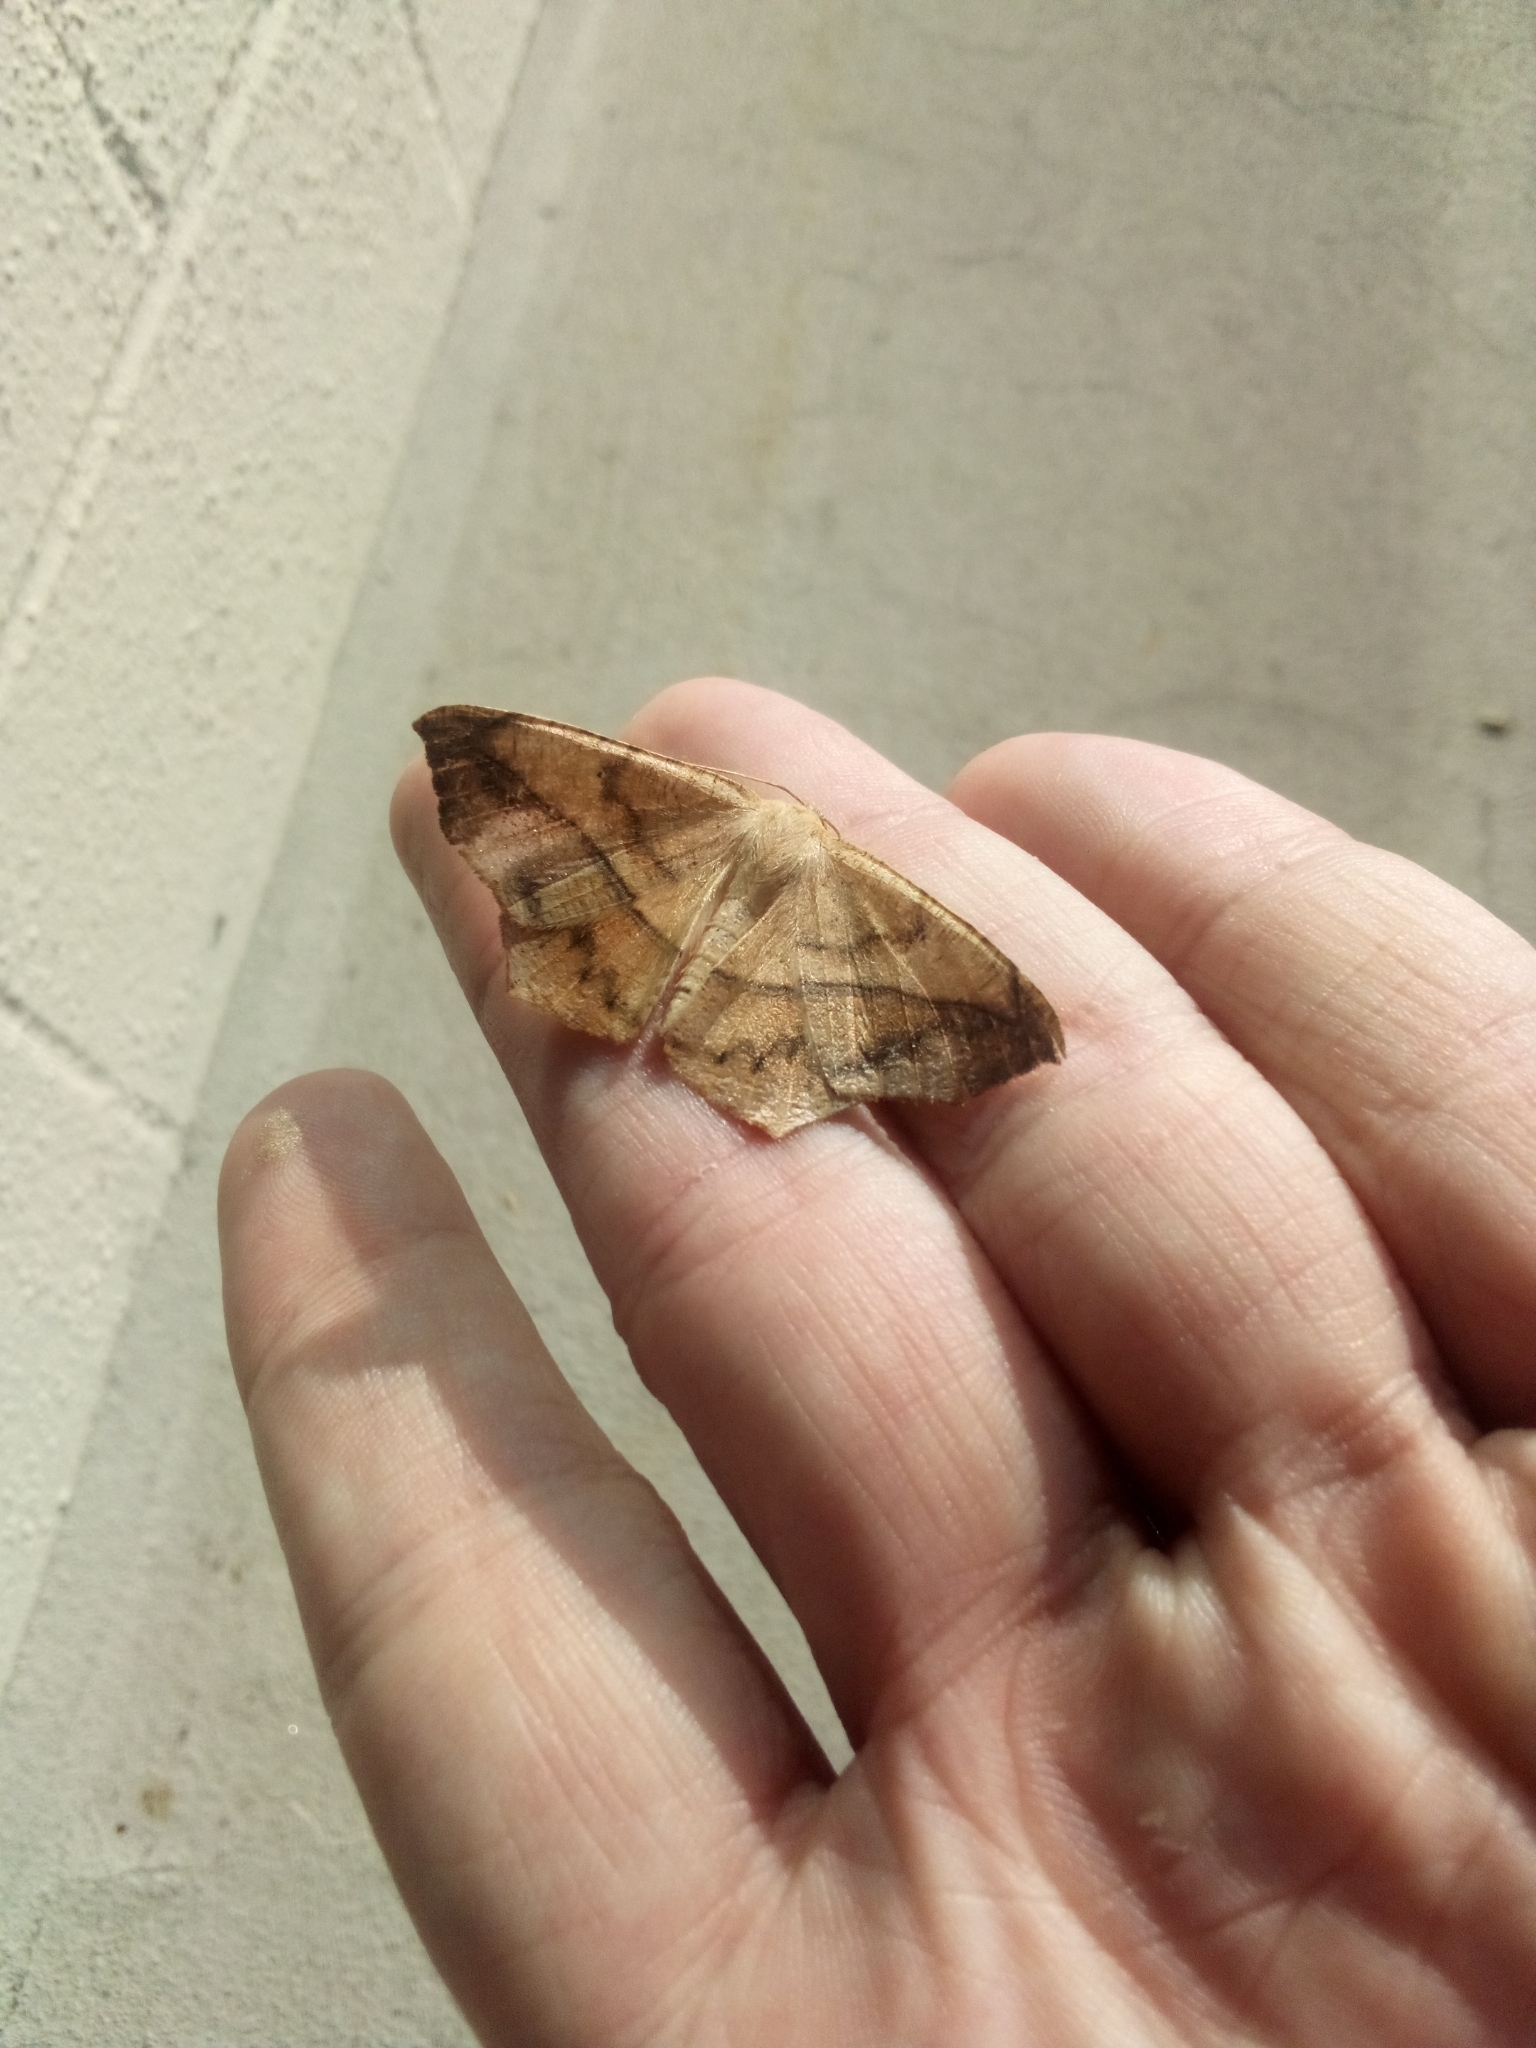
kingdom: Animalia
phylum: Arthropoda
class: Insecta
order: Lepidoptera
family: Geometridae
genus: Prochoerodes
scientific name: Prochoerodes lineola
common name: Large maple spanworm
